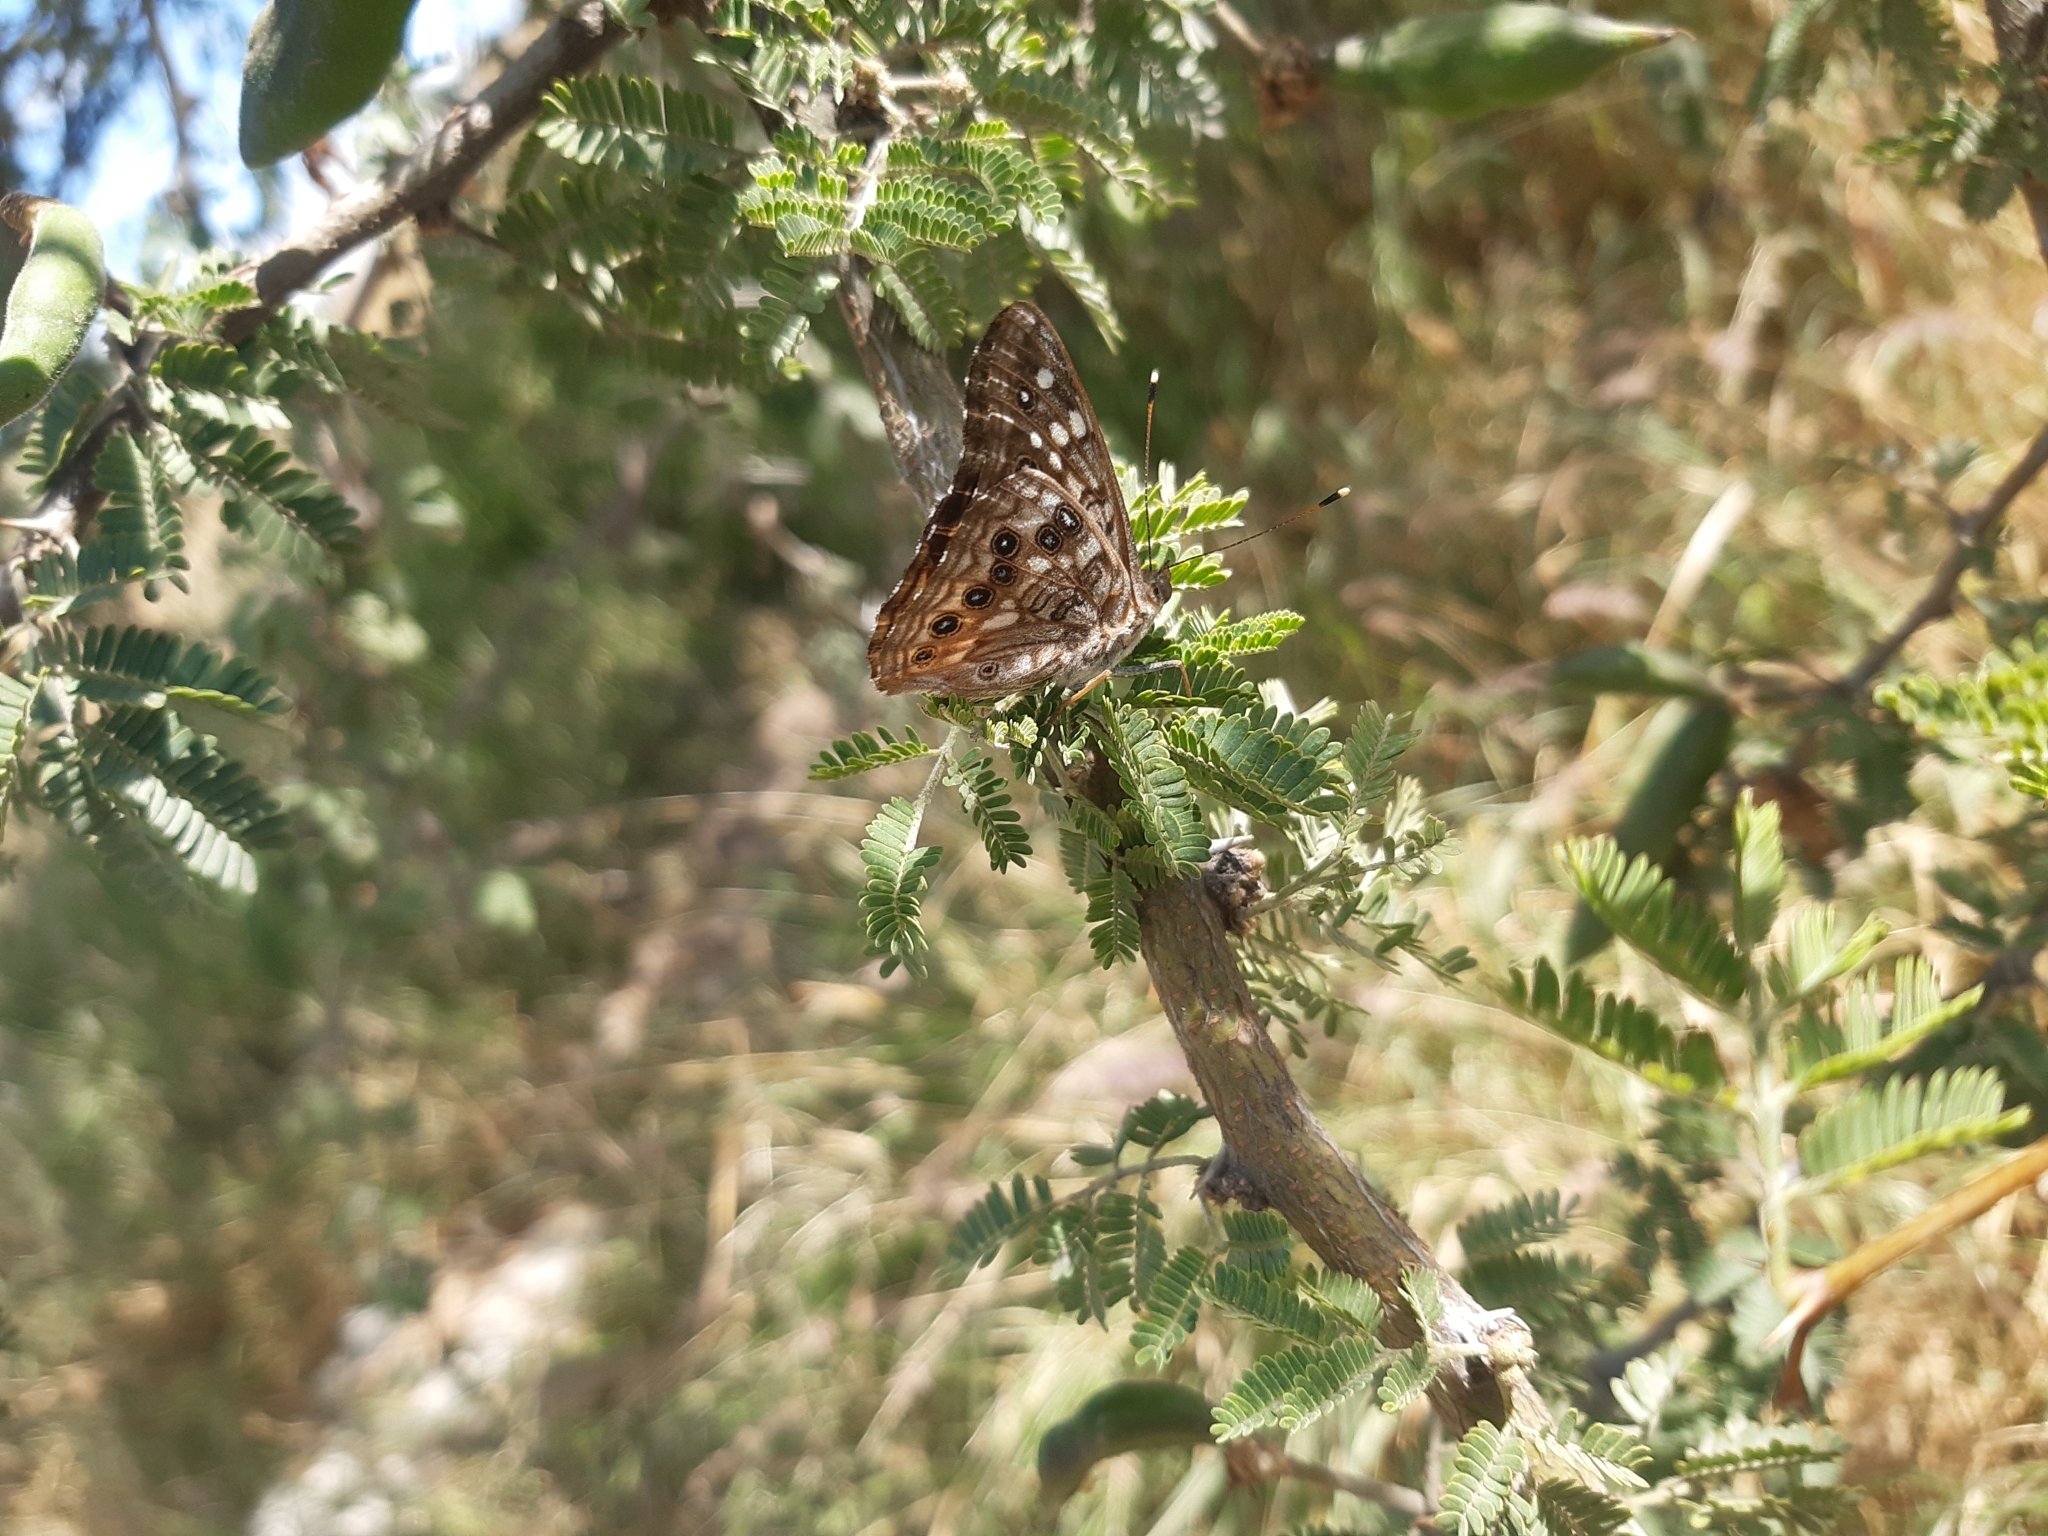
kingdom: Animalia
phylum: Arthropoda
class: Insecta
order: Lepidoptera
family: Nymphalidae
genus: Asterocampa
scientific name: Asterocampa leilia
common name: Empress leilia
